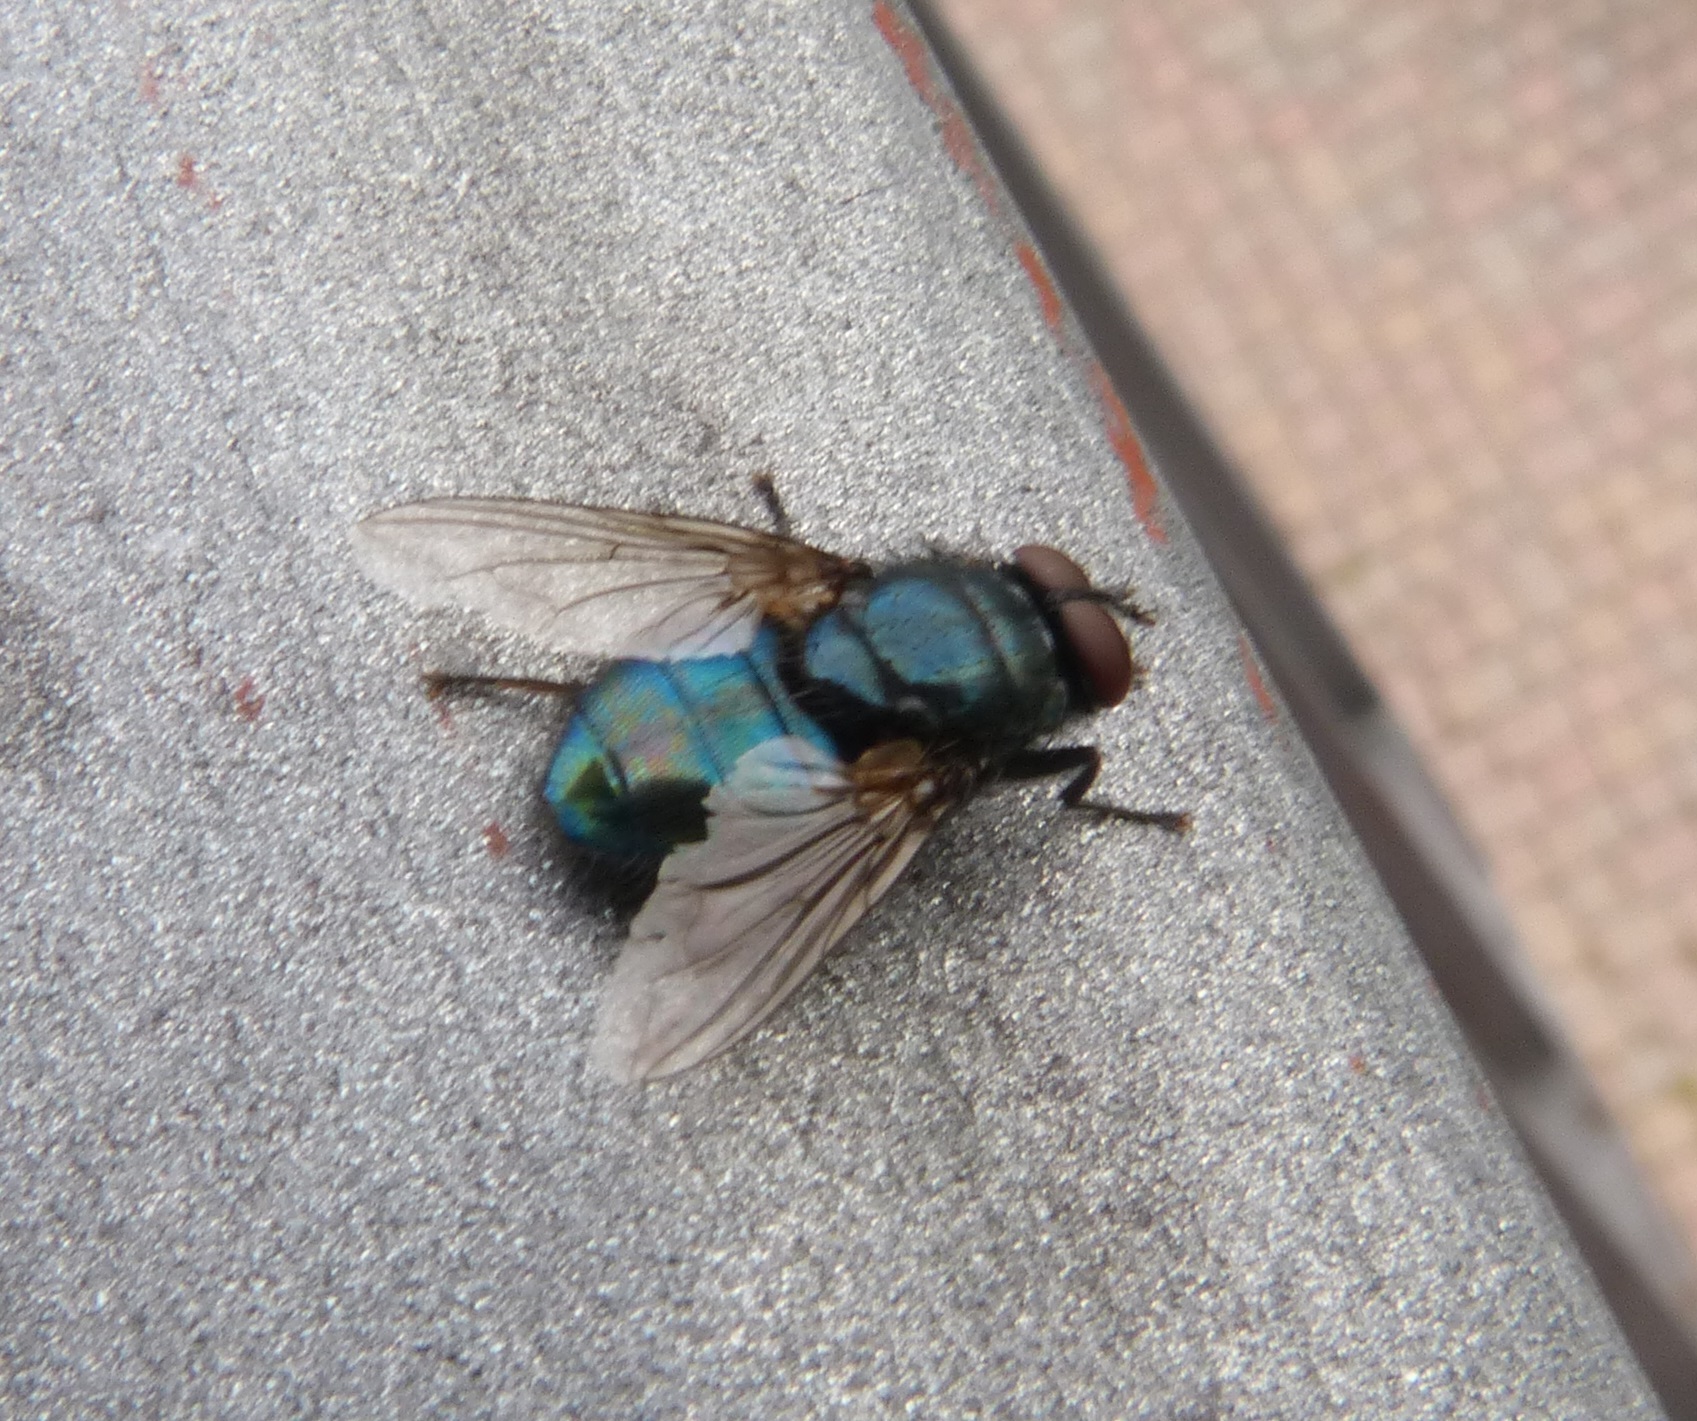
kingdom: Animalia
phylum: Arthropoda
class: Insecta
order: Diptera
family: Calliphoridae
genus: Protocalliphora
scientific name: Protocalliphora azurea
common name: Bird blowfly
